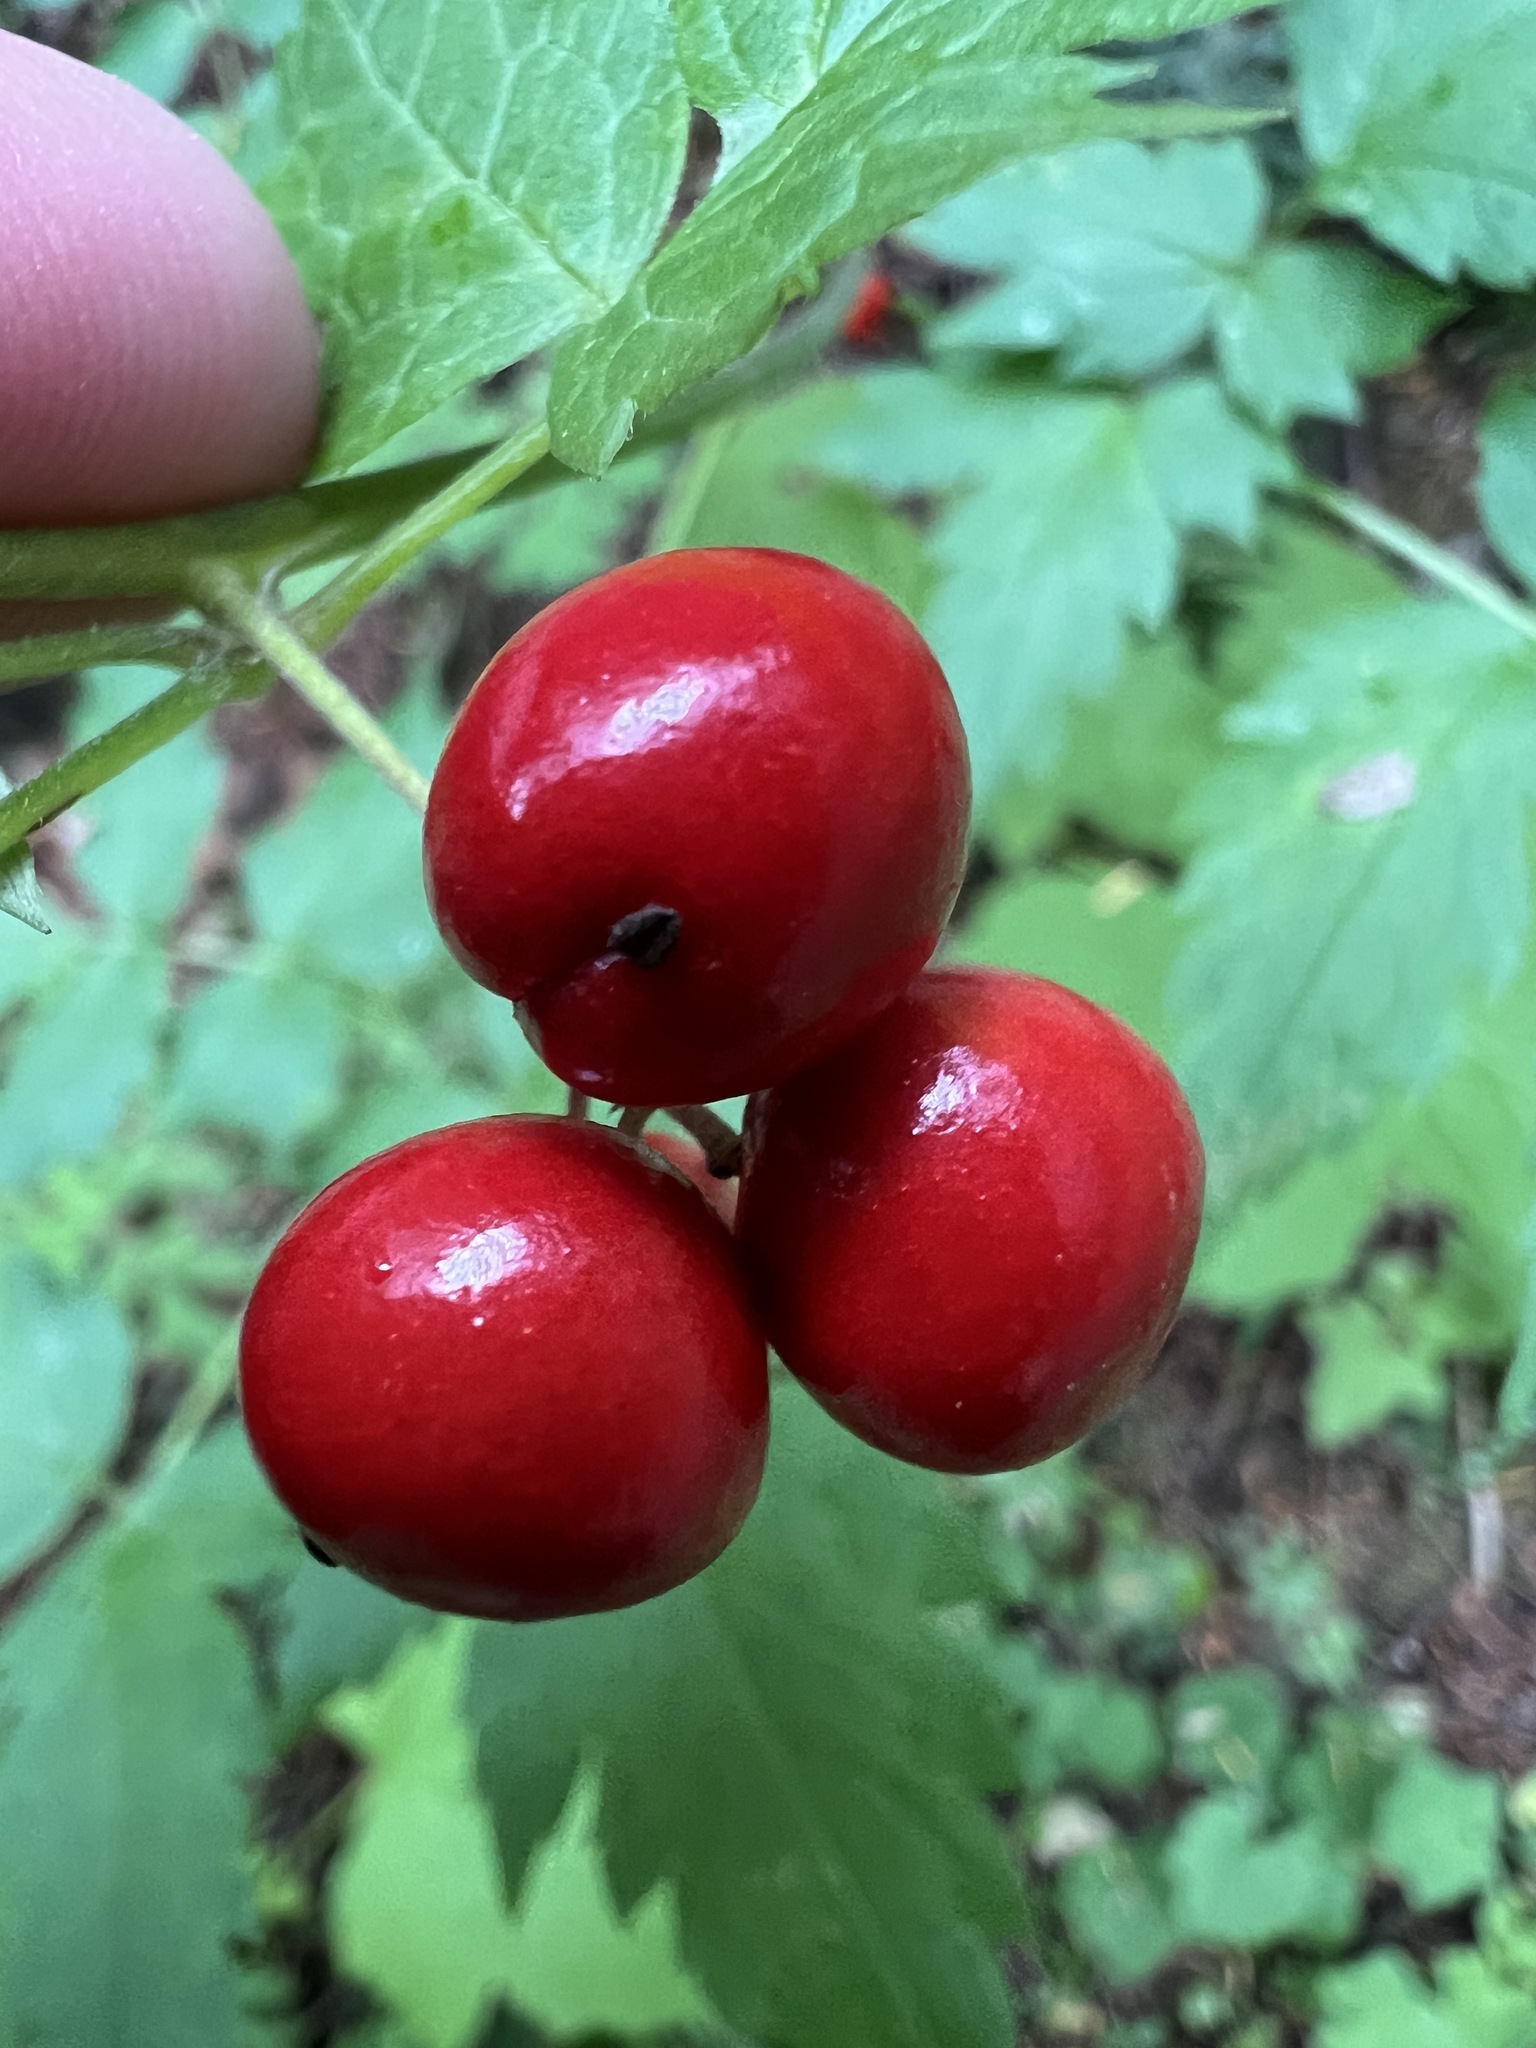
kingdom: Plantae
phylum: Tracheophyta
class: Magnoliopsida
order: Ranunculales
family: Ranunculaceae
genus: Actaea
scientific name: Actaea rubra
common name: Red baneberry
